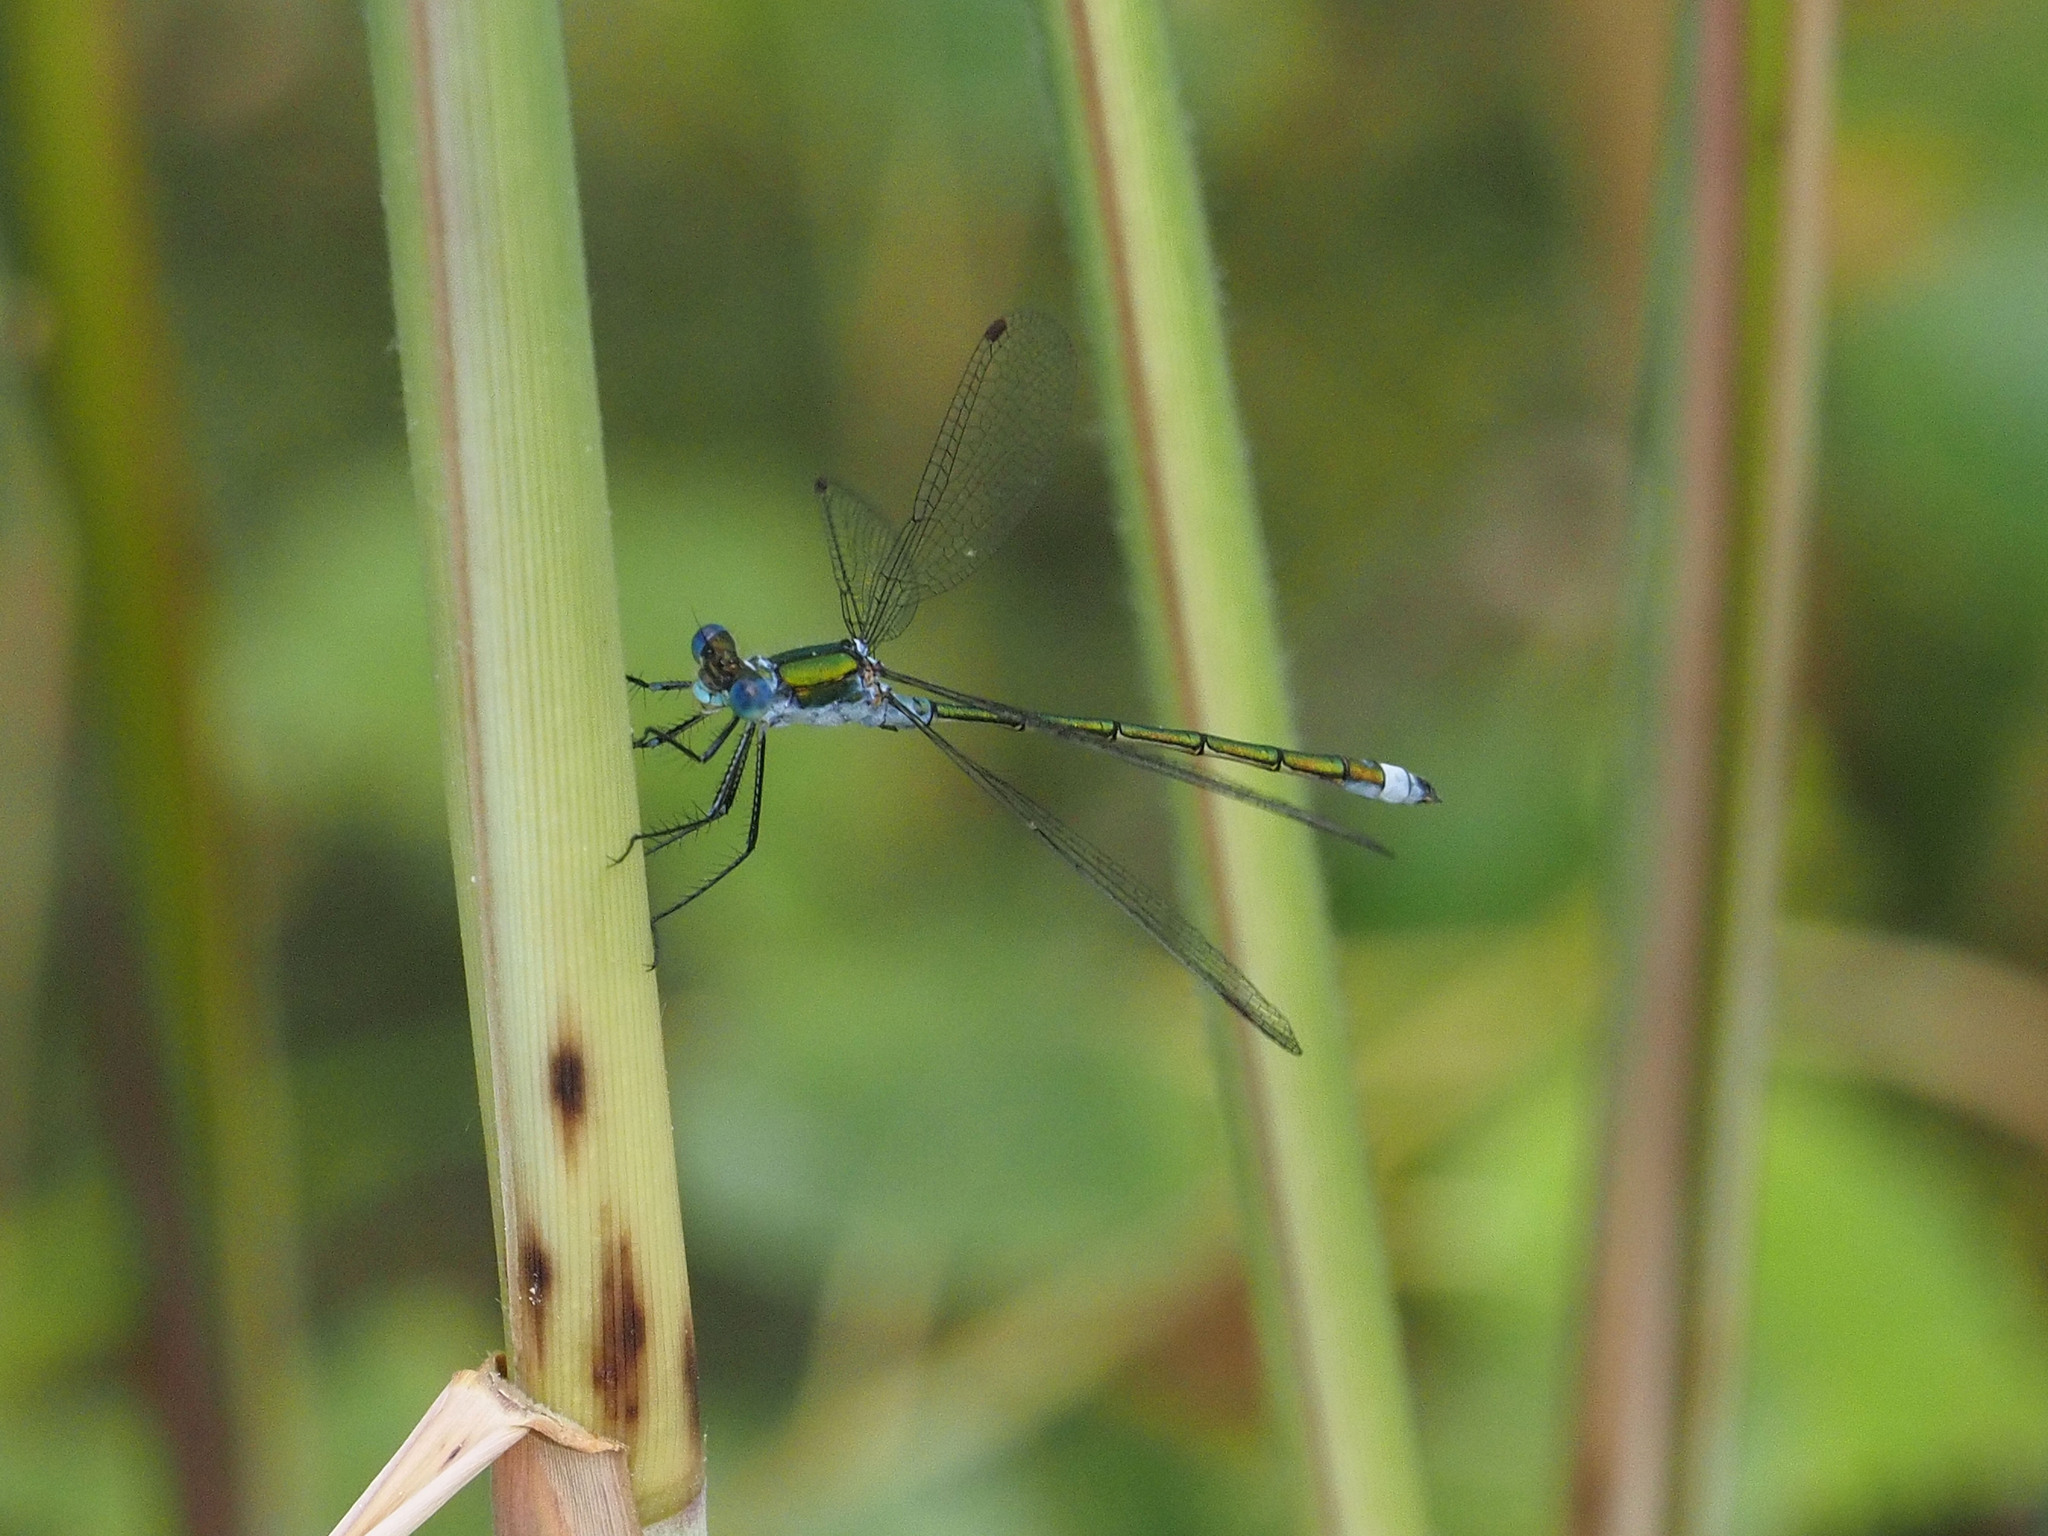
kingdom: Animalia
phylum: Arthropoda
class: Insecta
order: Odonata
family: Lestidae
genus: Lestes
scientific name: Lestes sponsa
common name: Common spreadwing
